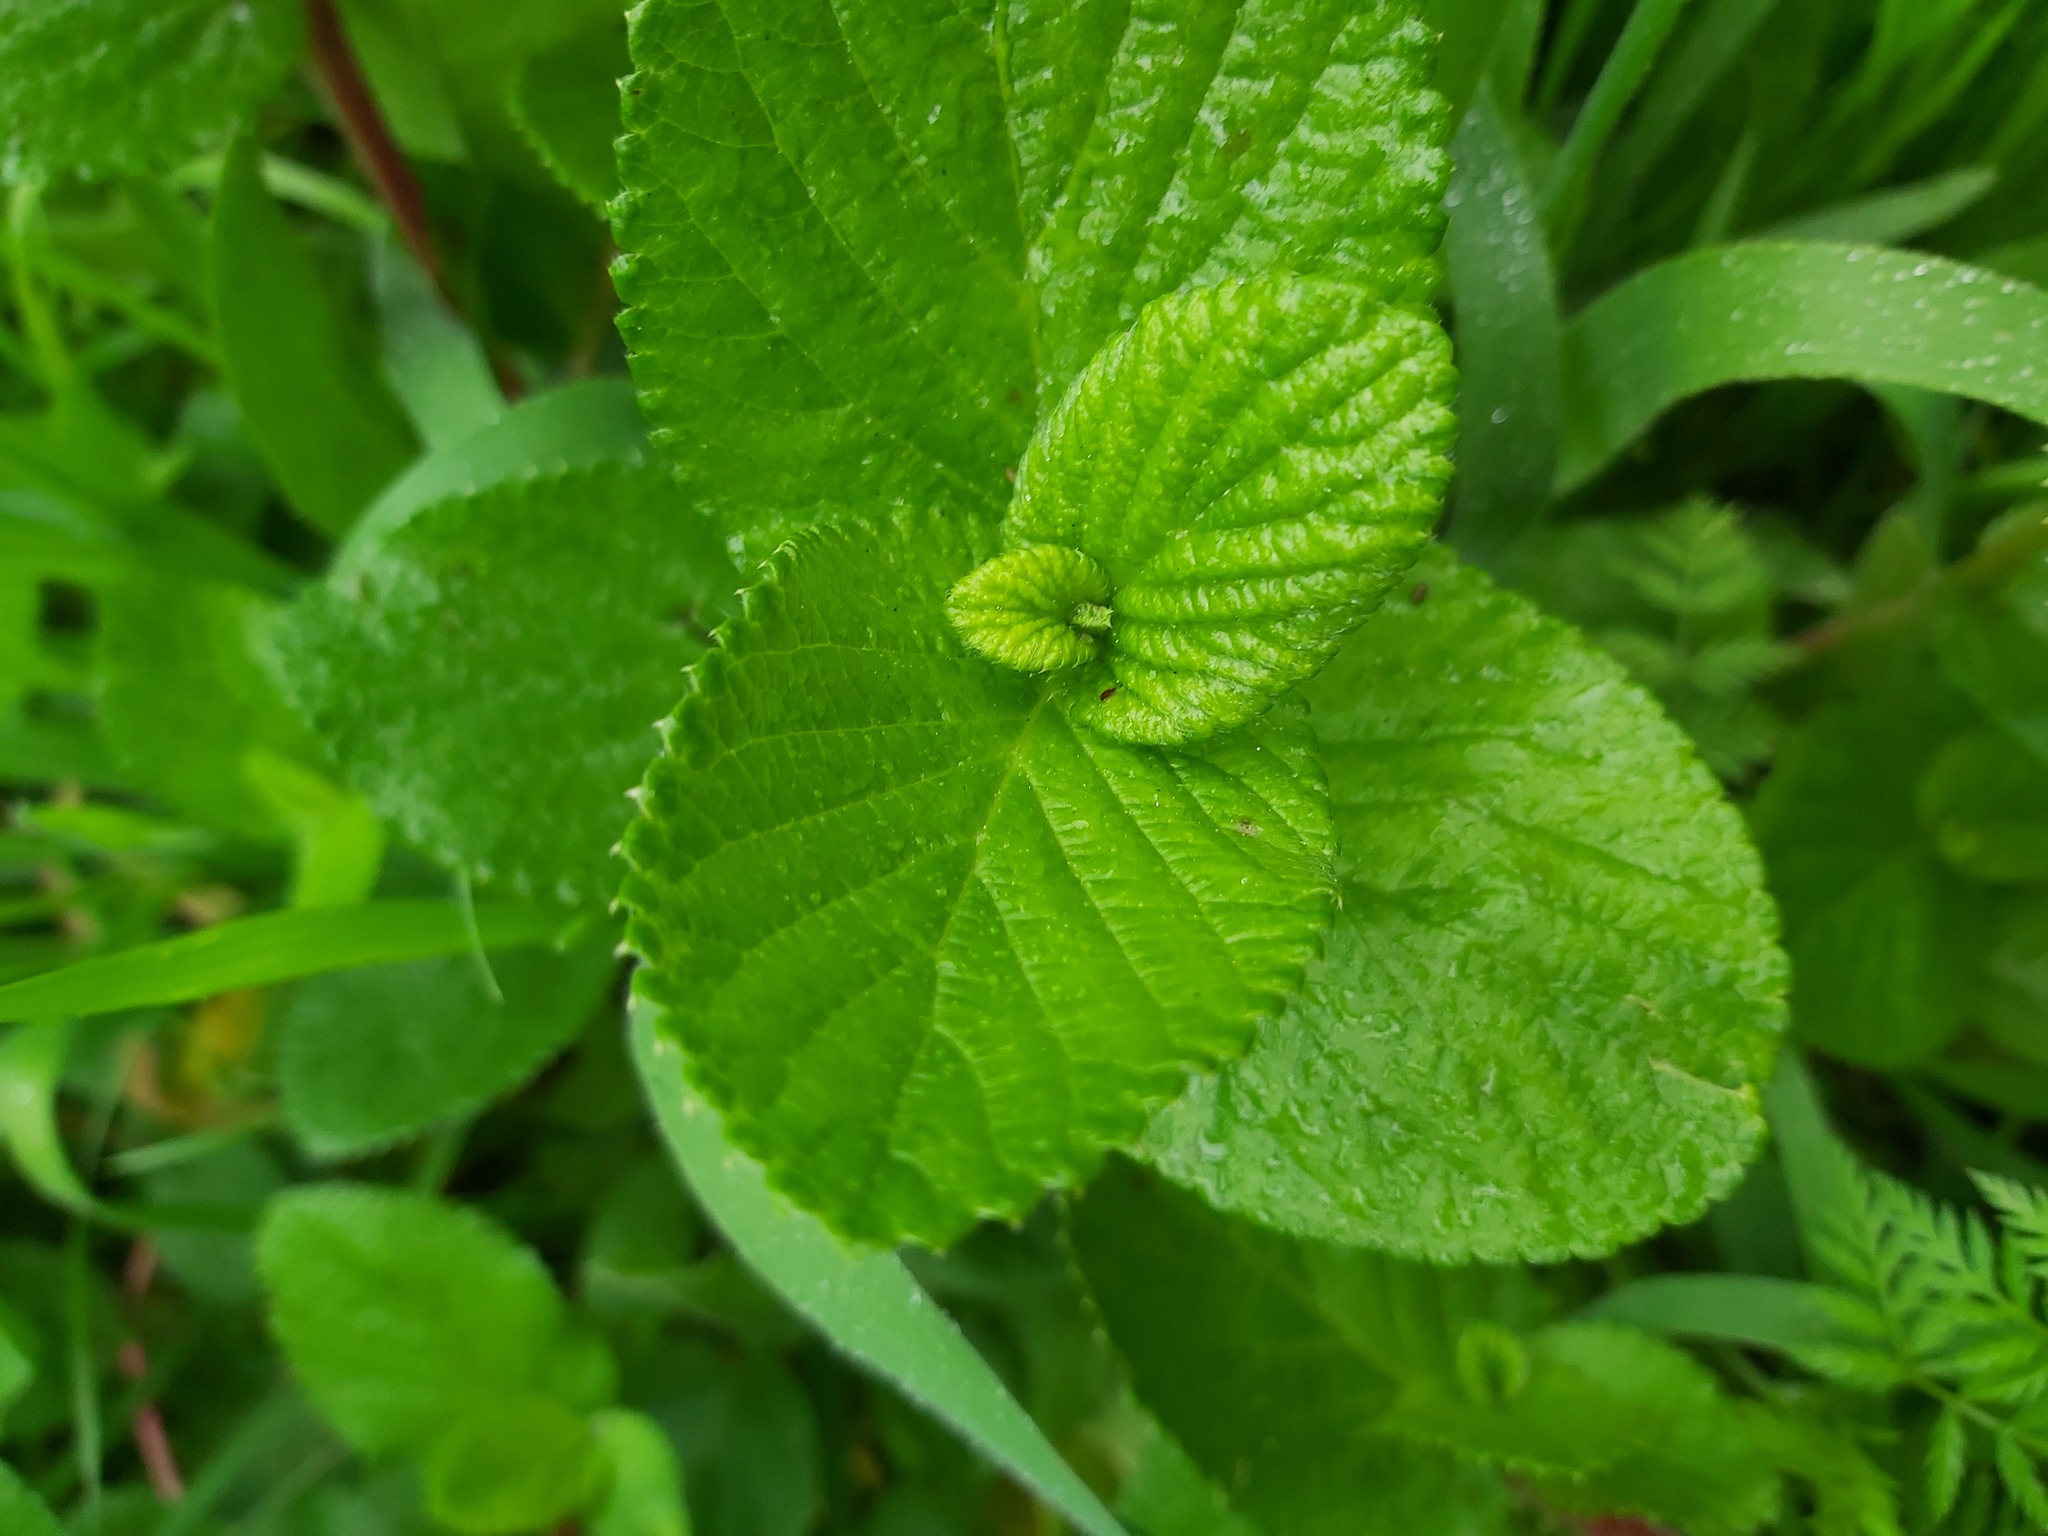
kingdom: Plantae
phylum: Tracheophyta
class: Magnoliopsida
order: Rosales
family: Rosaceae
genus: Cliffortia
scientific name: Cliffortia odorata
